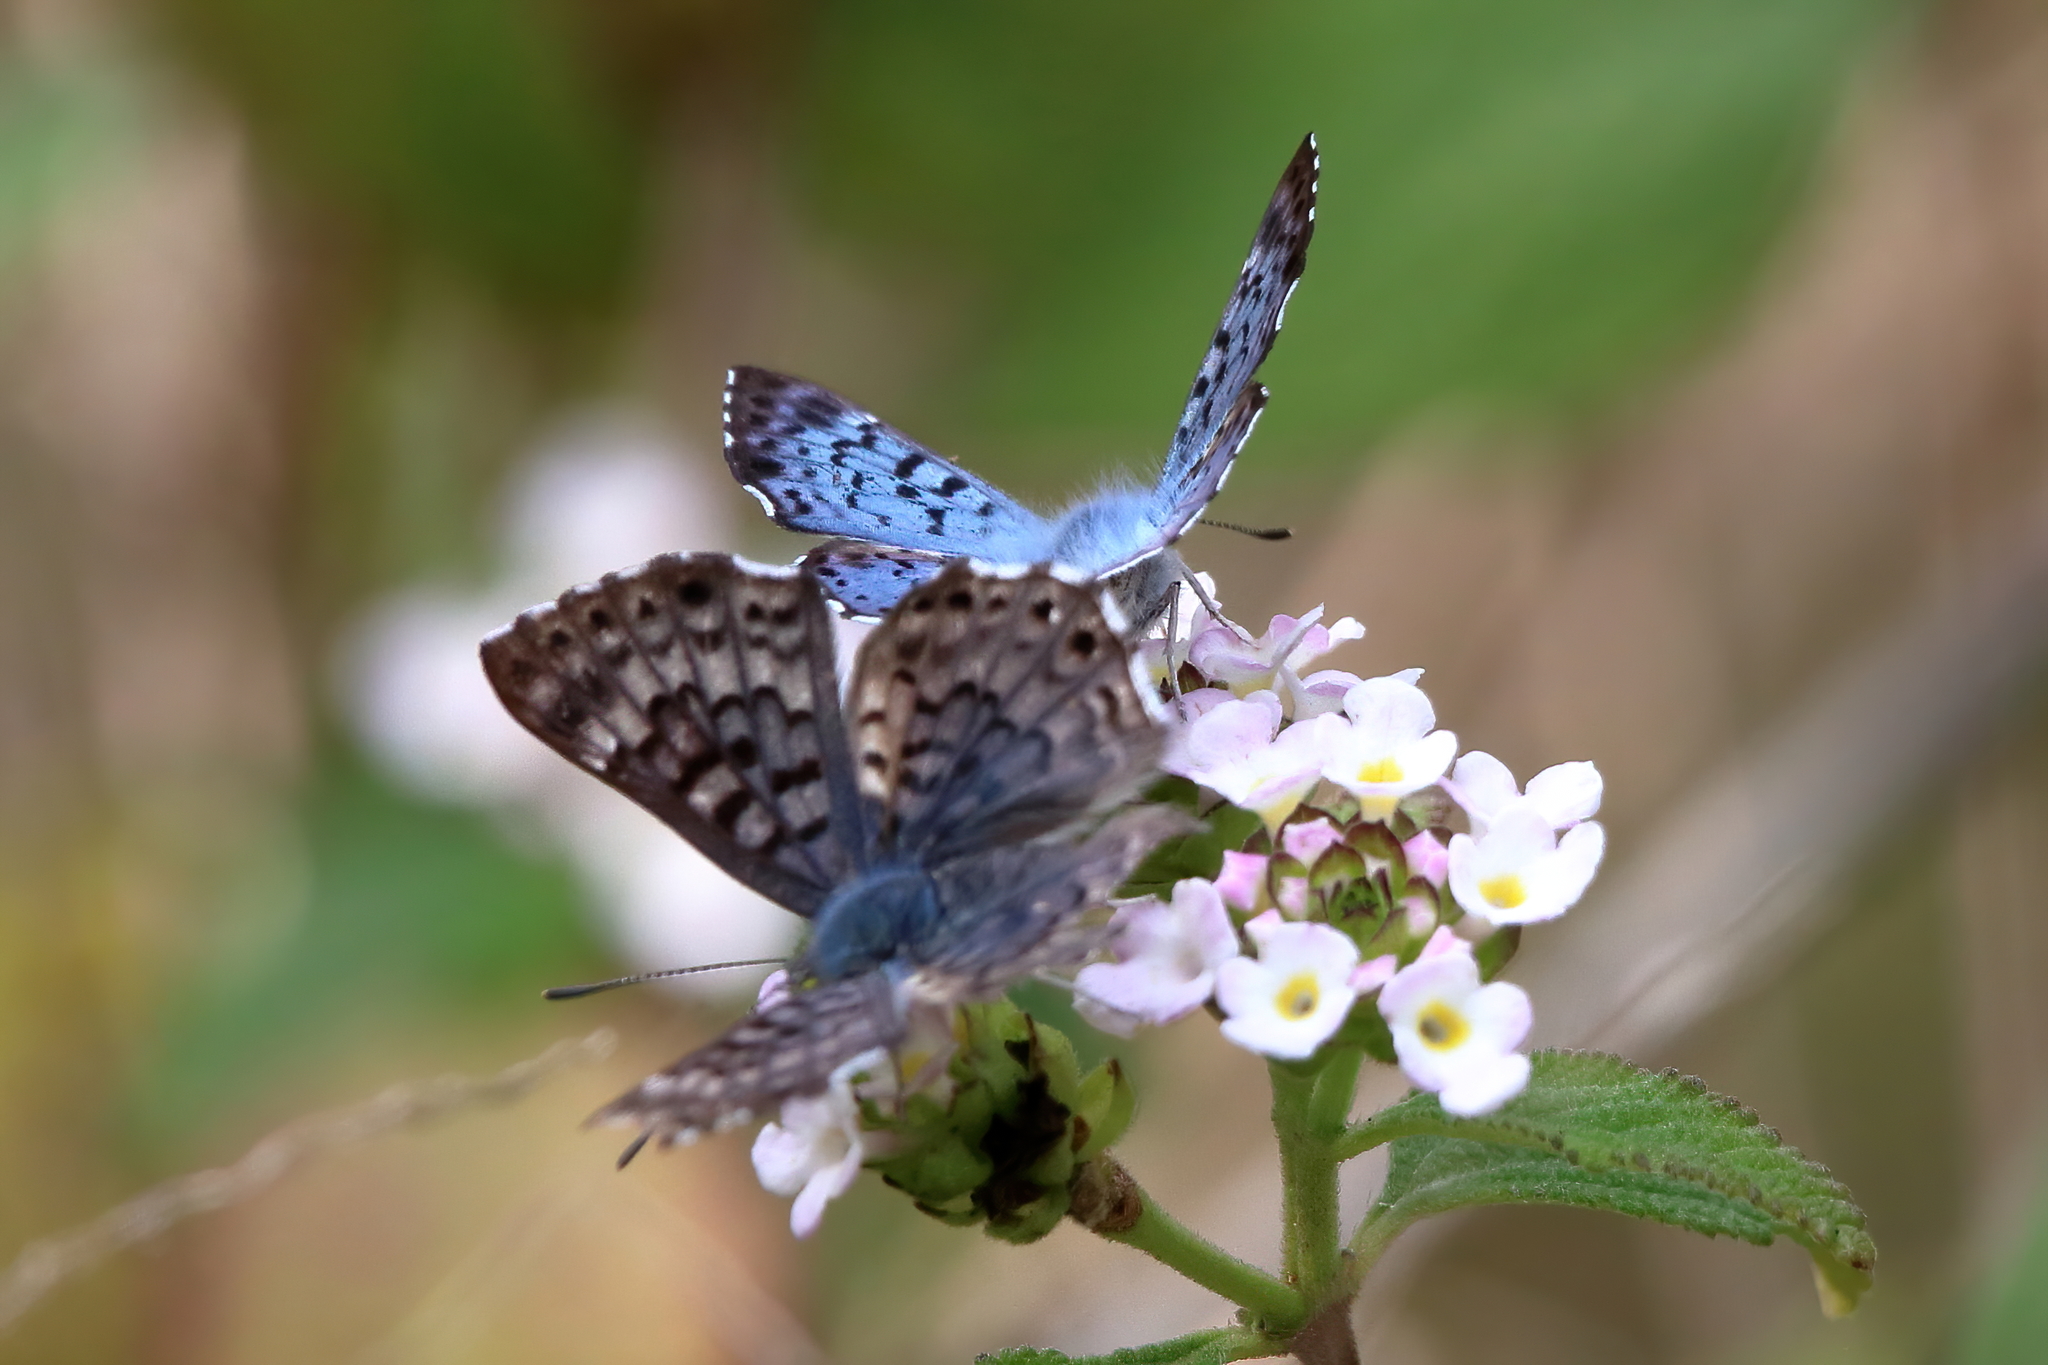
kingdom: Animalia
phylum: Arthropoda
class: Insecta
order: Lepidoptera
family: Riodinidae
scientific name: Riodinidae
